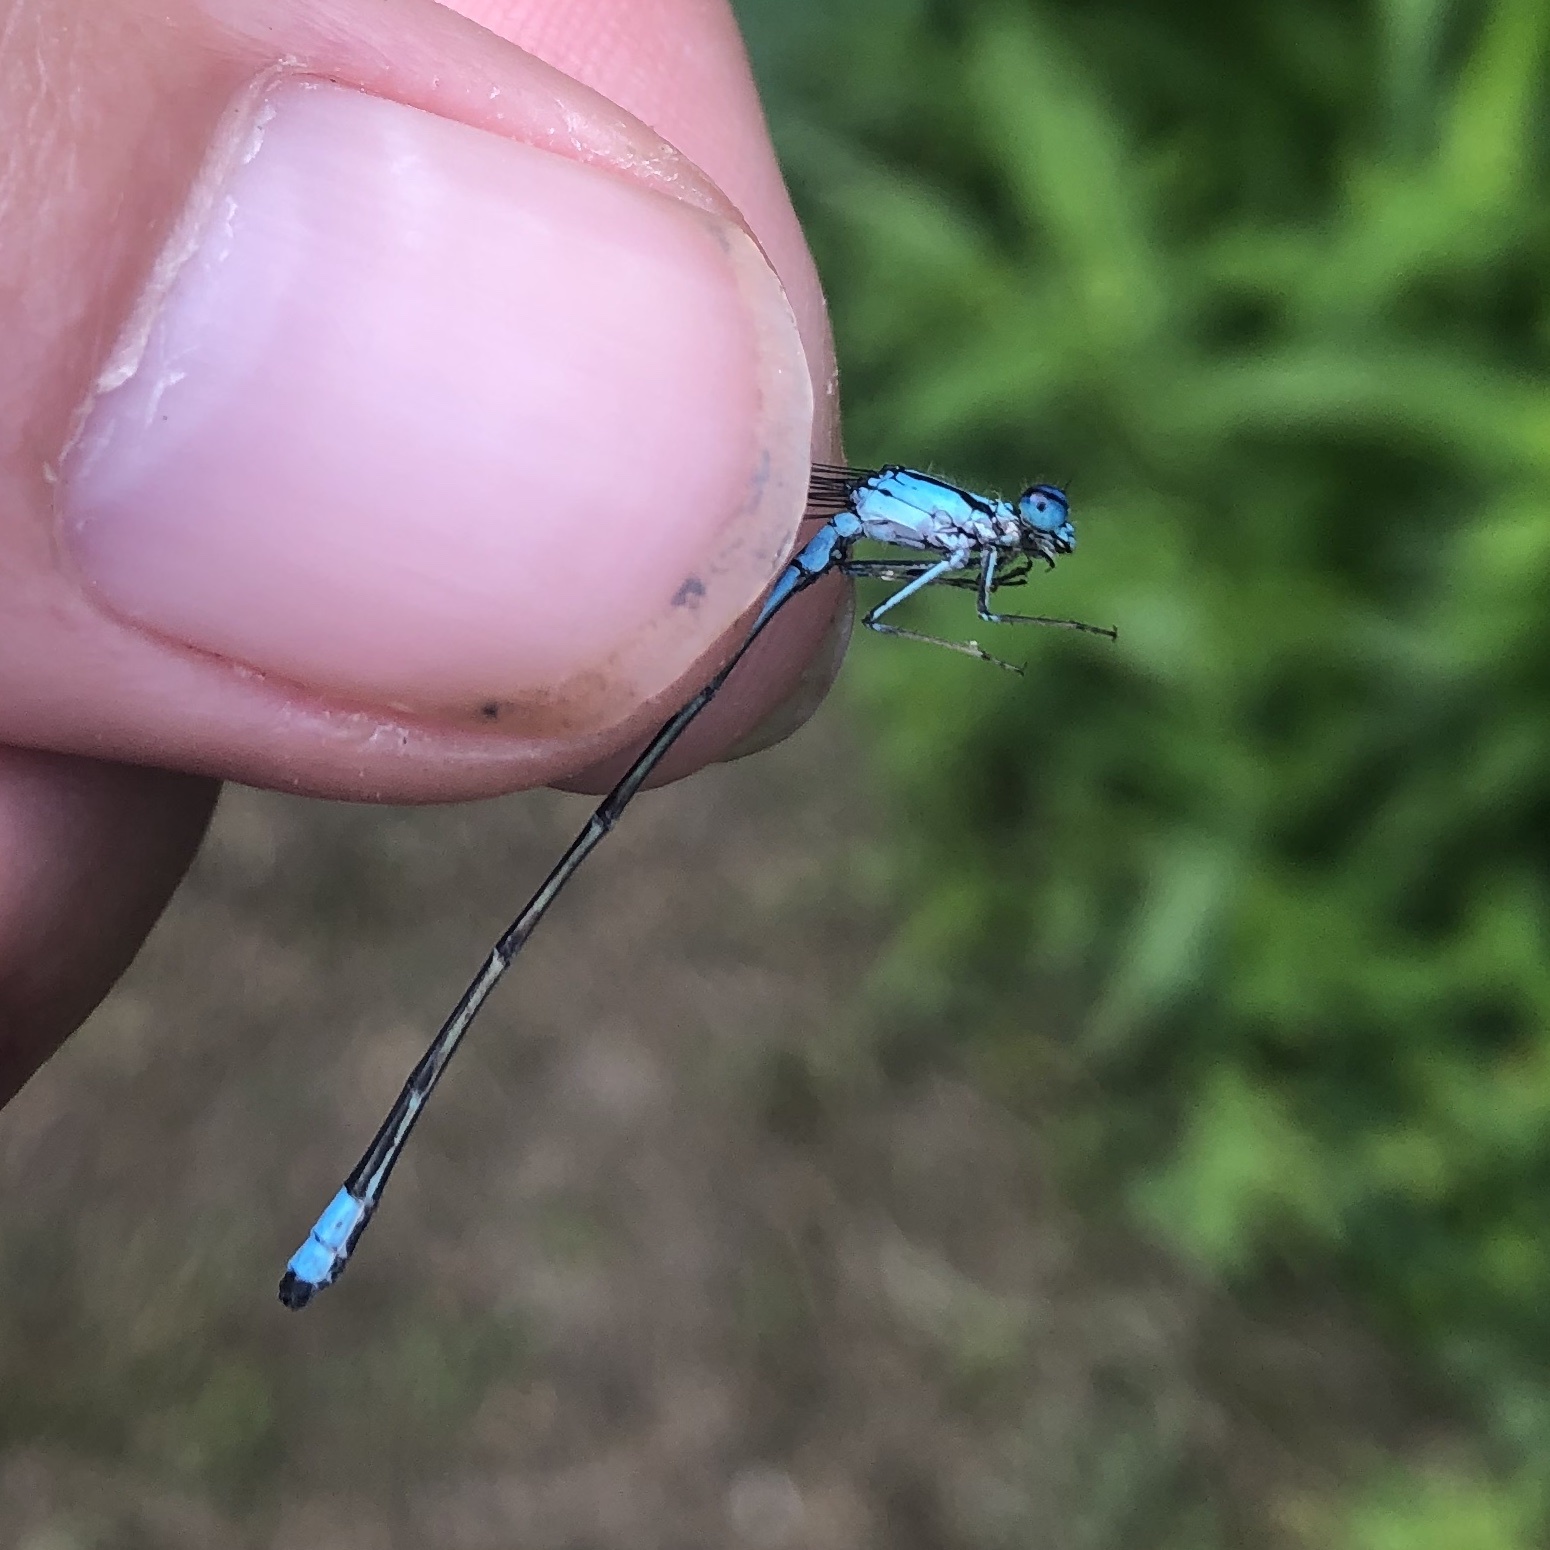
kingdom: Animalia
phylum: Arthropoda
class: Insecta
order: Odonata
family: Coenagrionidae
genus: Enallagma
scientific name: Enallagma divagans
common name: Turquoise bluet
